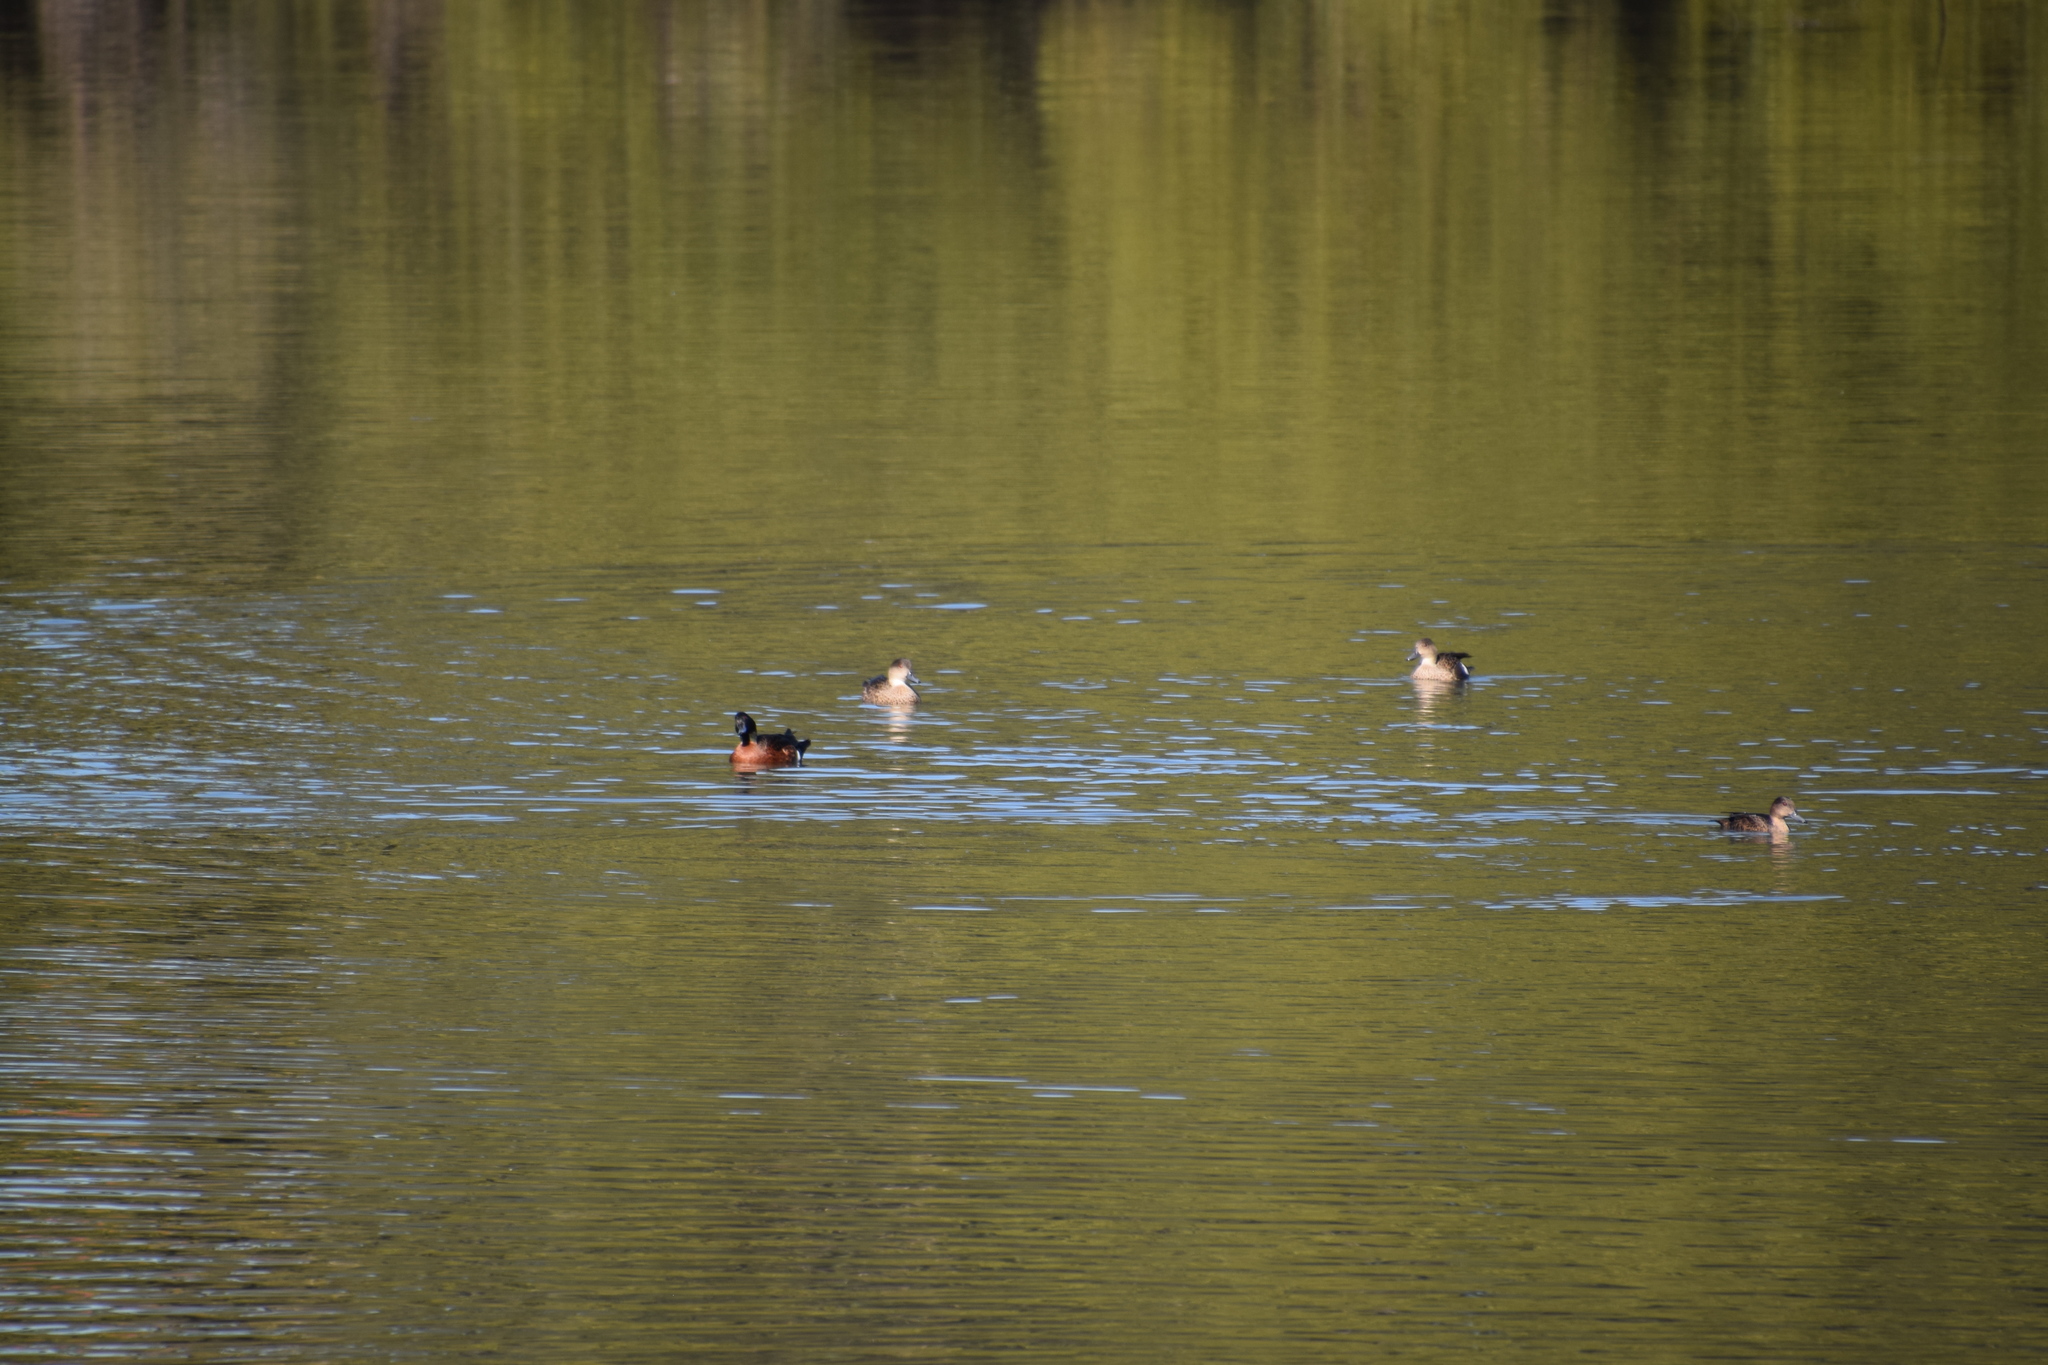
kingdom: Animalia
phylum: Chordata
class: Aves
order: Anseriformes
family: Anatidae
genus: Anas
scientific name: Anas castanea
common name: Chestnut teal
